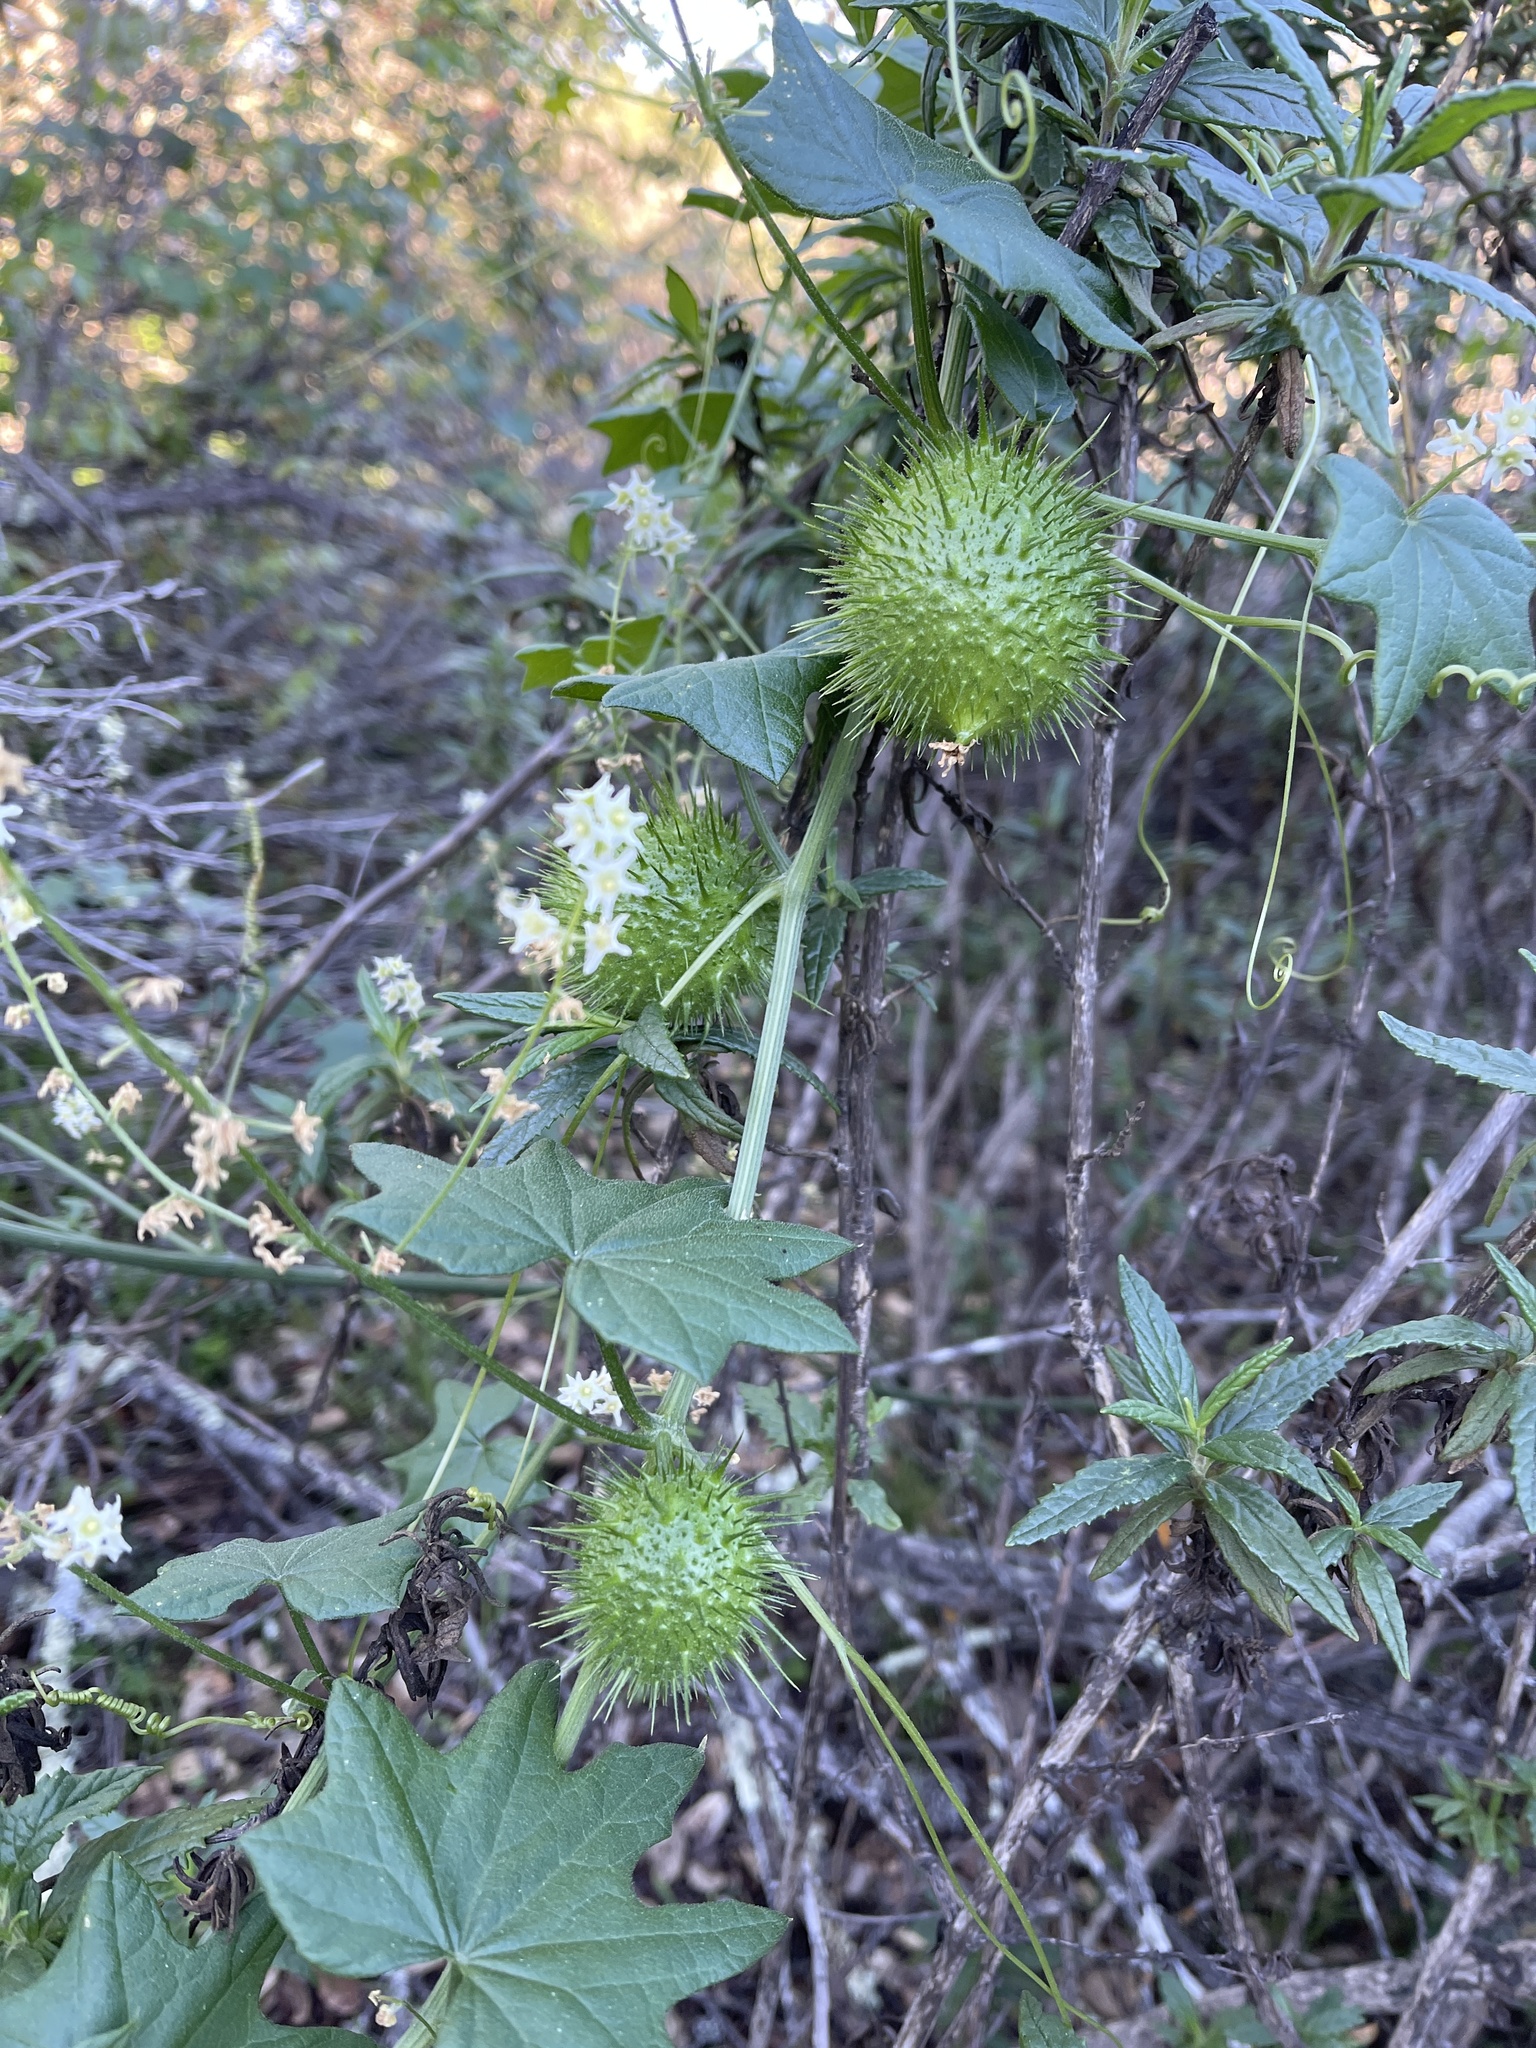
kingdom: Plantae
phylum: Tracheophyta
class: Magnoliopsida
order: Cucurbitales
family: Cucurbitaceae
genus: Marah
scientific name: Marah fabacea
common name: California manroot
